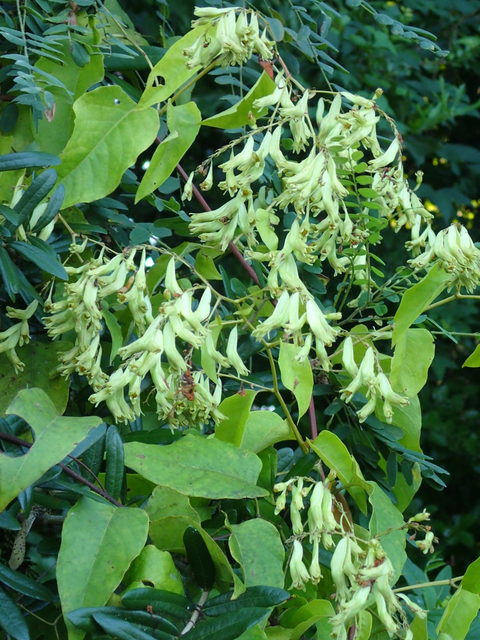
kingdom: Plantae
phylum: Tracheophyta
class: Magnoliopsida
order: Caryophyllales
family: Polygonaceae
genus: Brunnichia
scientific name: Brunnichia ovata
